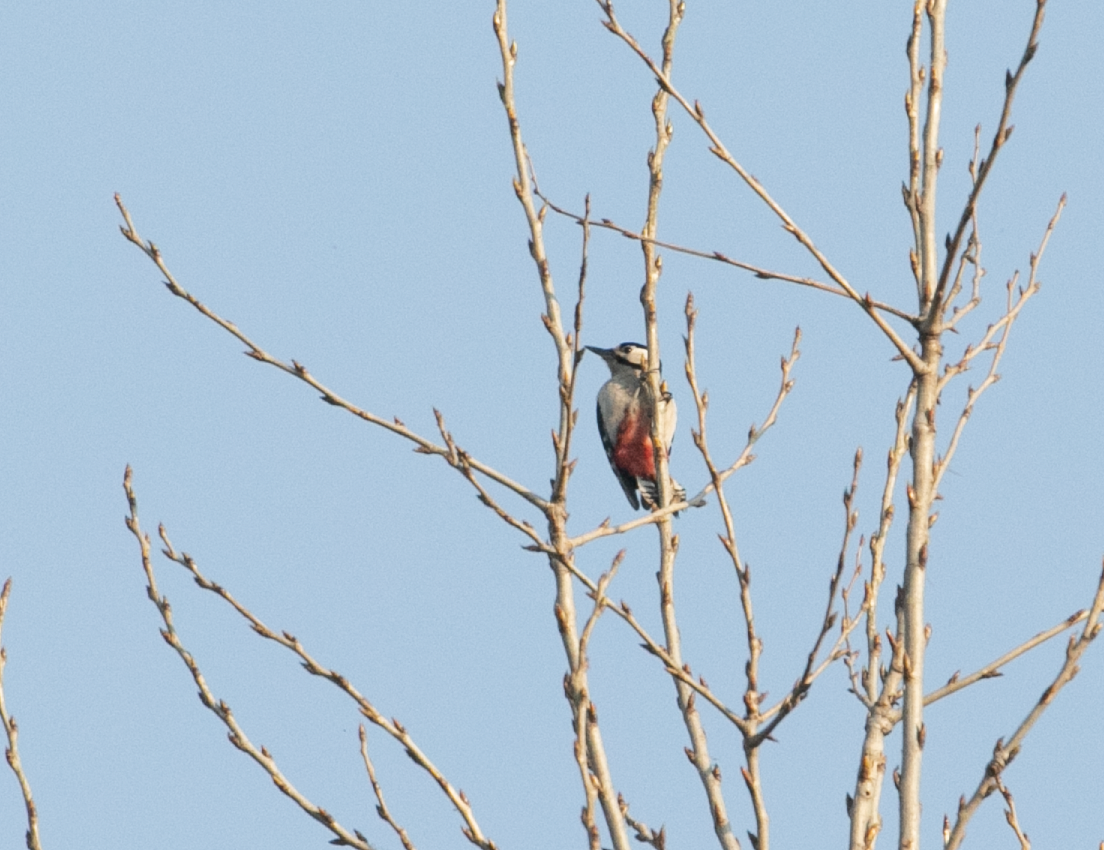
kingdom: Animalia
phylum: Chordata
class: Aves
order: Piciformes
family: Picidae
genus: Dendrocopos
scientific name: Dendrocopos major
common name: Great spotted woodpecker
